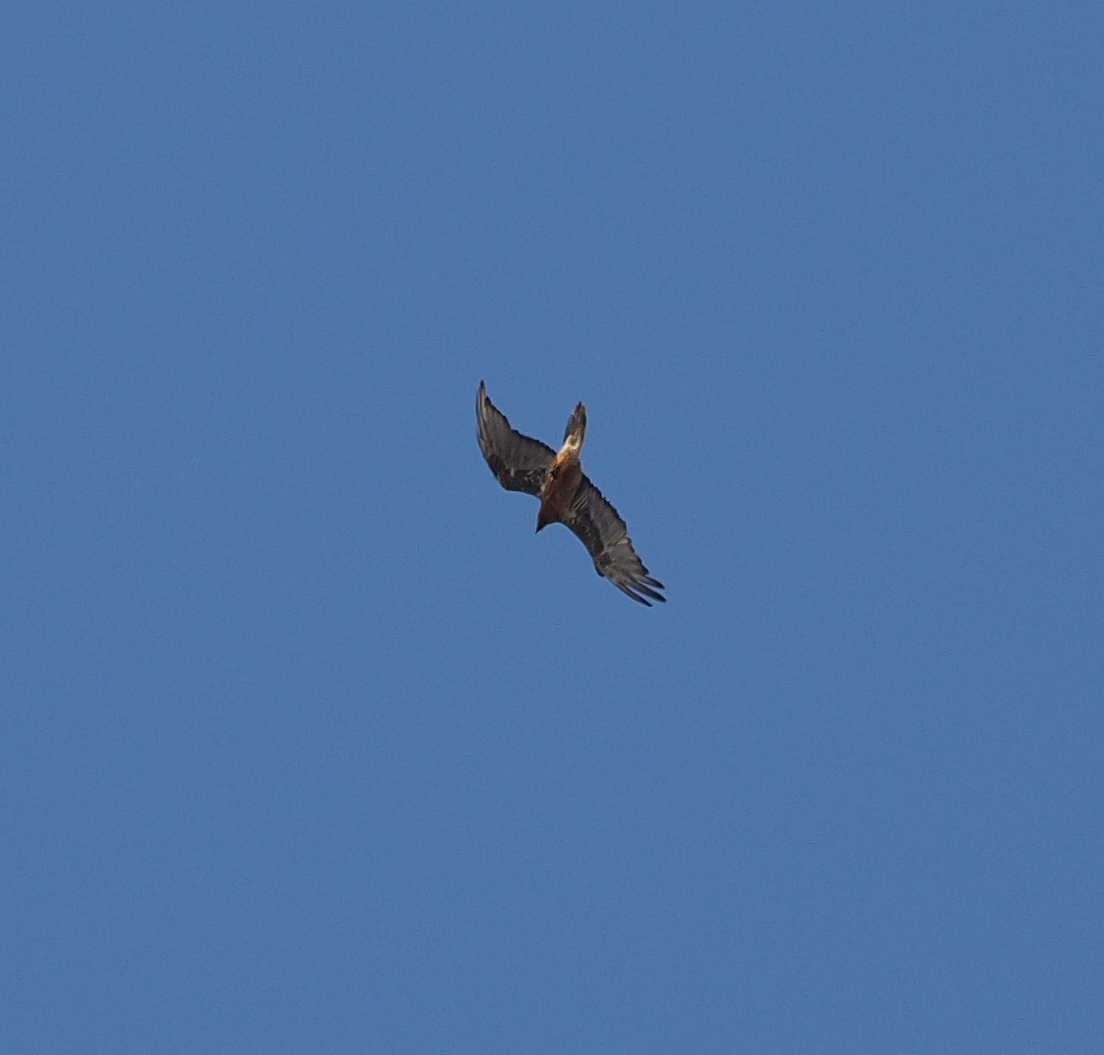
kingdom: Animalia
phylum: Chordata
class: Aves
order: Accipitriformes
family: Accipitridae
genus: Gypaetus
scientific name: Gypaetus barbatus
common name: Bearded vulture
